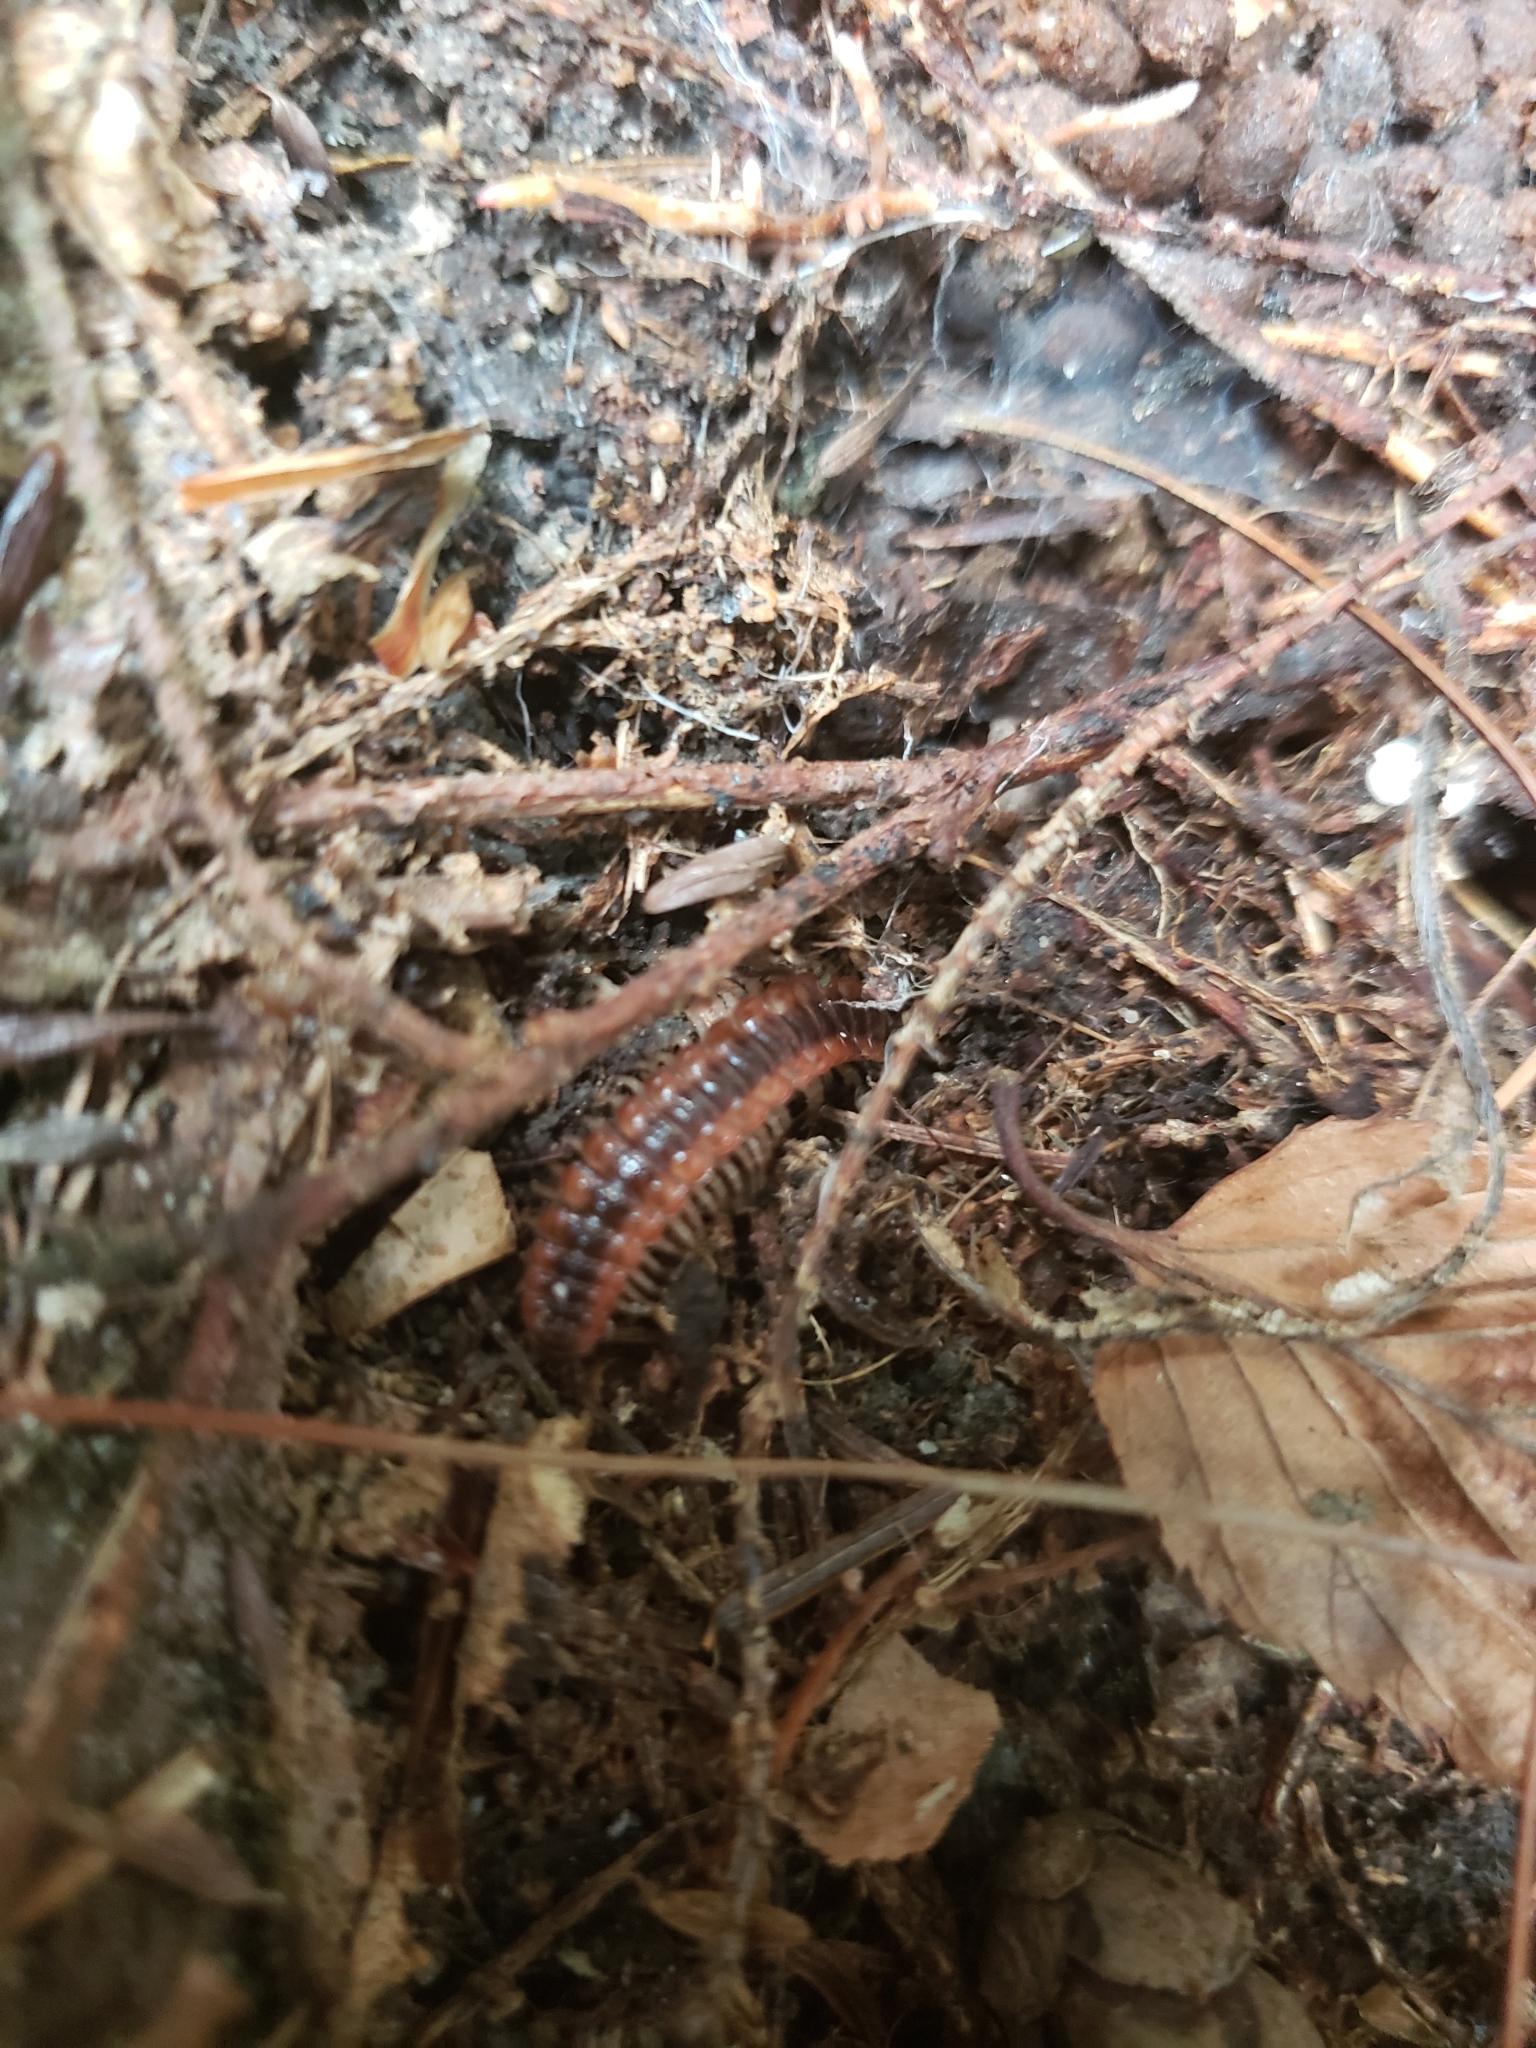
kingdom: Animalia
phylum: Arthropoda
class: Diplopoda
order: Polydesmida
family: Polydesmidae
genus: Pseudopolydesmus
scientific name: Pseudopolydesmus canadensis
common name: Canadian flat-back millipede
